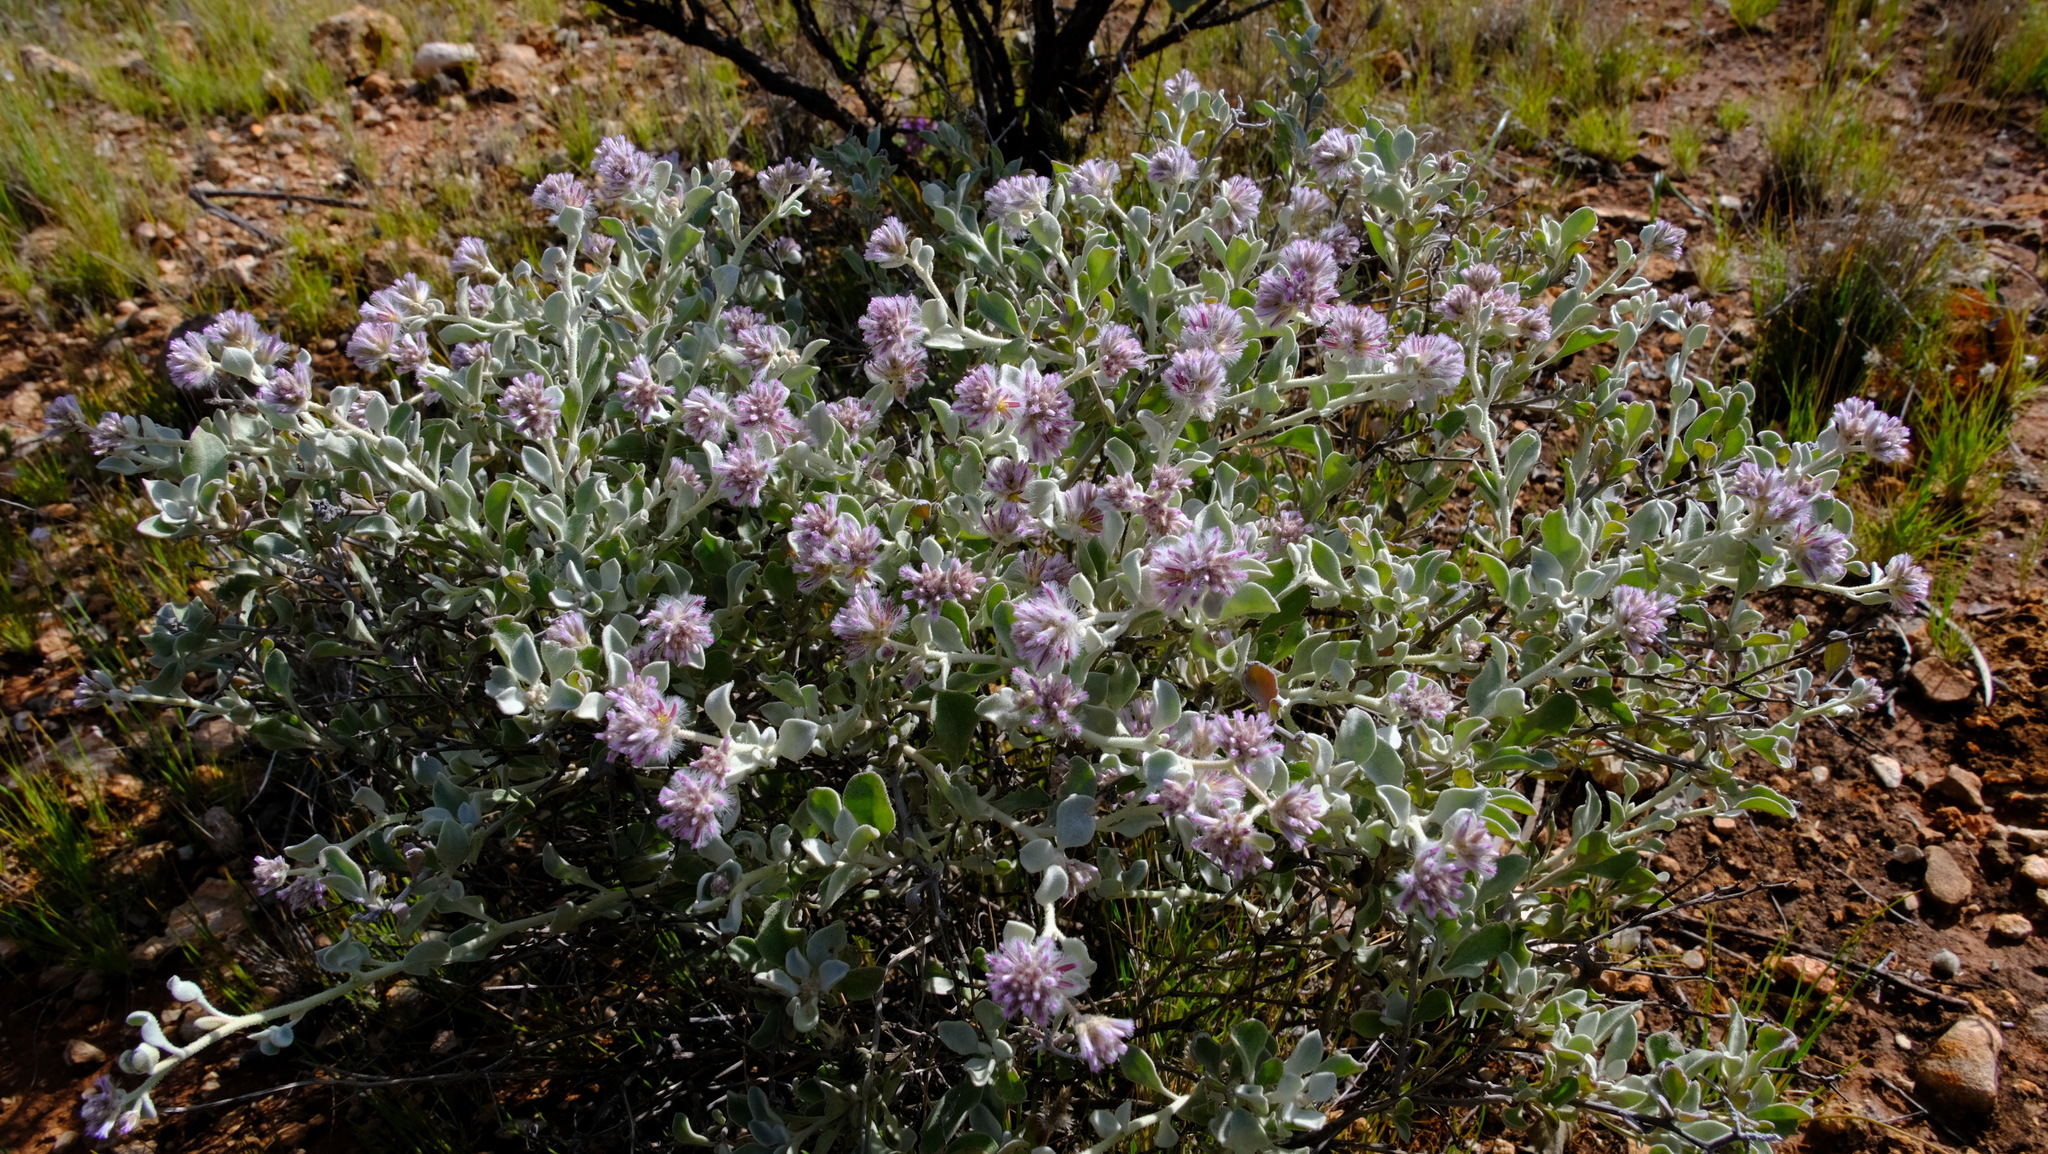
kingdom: Plantae
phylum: Tracheophyta
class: Magnoliopsida
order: Caryophyllales
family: Amaranthaceae
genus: Ptilotus
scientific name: Ptilotus obovatus
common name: Cottonbush
